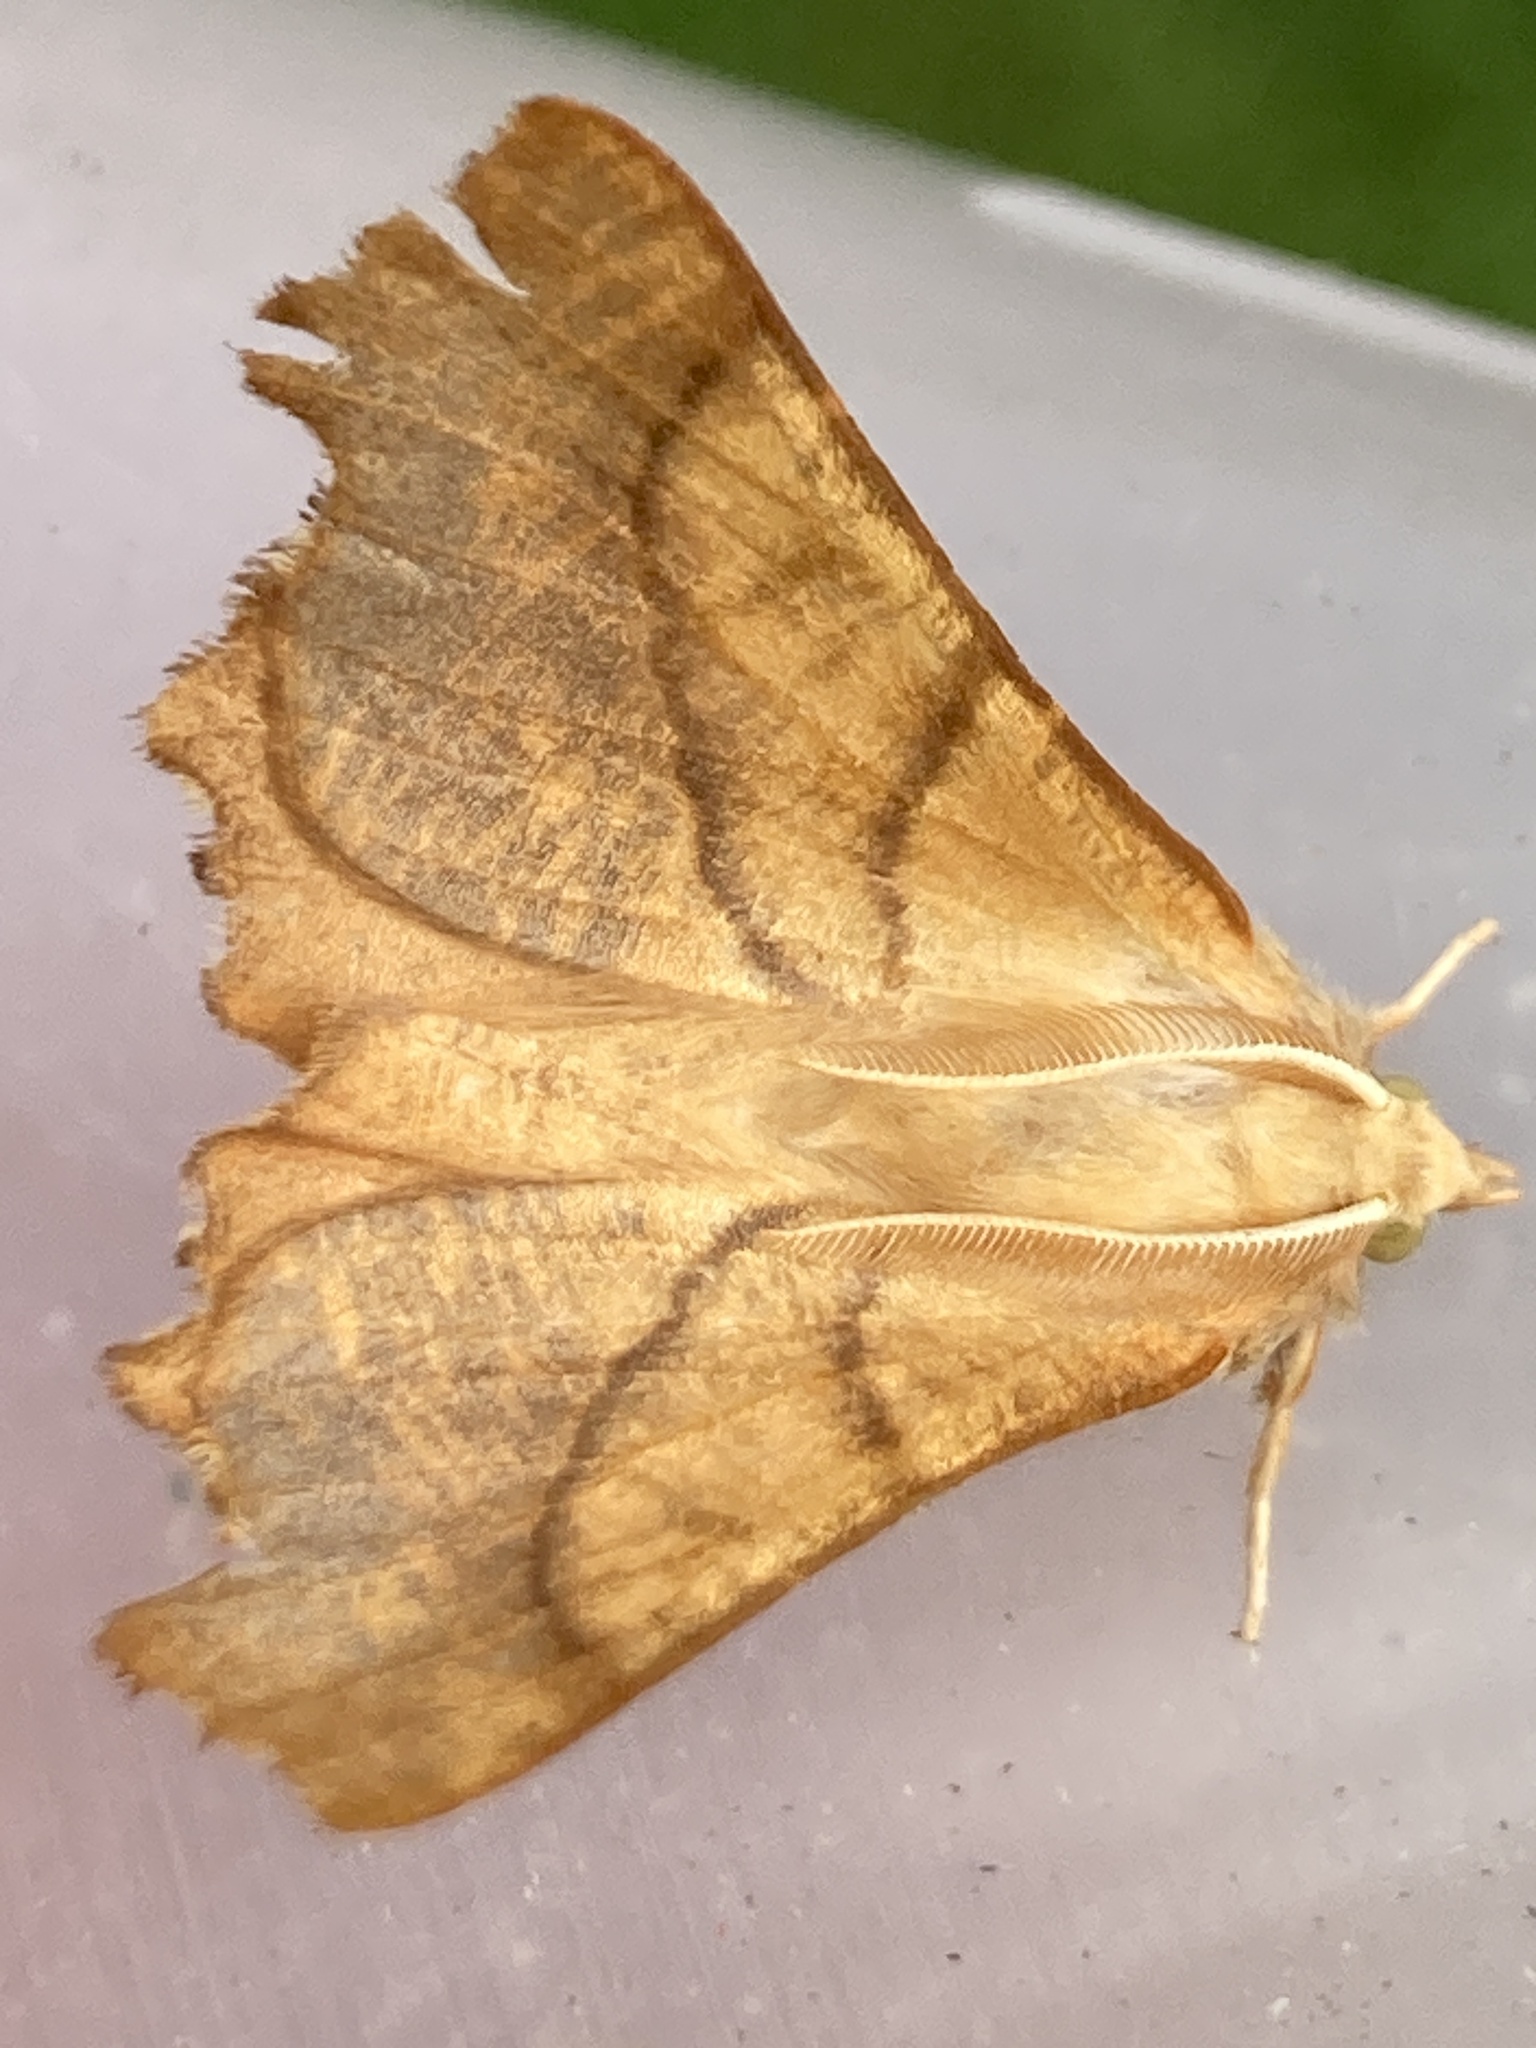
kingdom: Animalia
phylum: Arthropoda
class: Insecta
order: Lepidoptera
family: Geometridae
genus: Ennomos
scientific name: Ennomos fuscantaria
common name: Dusky thorn
